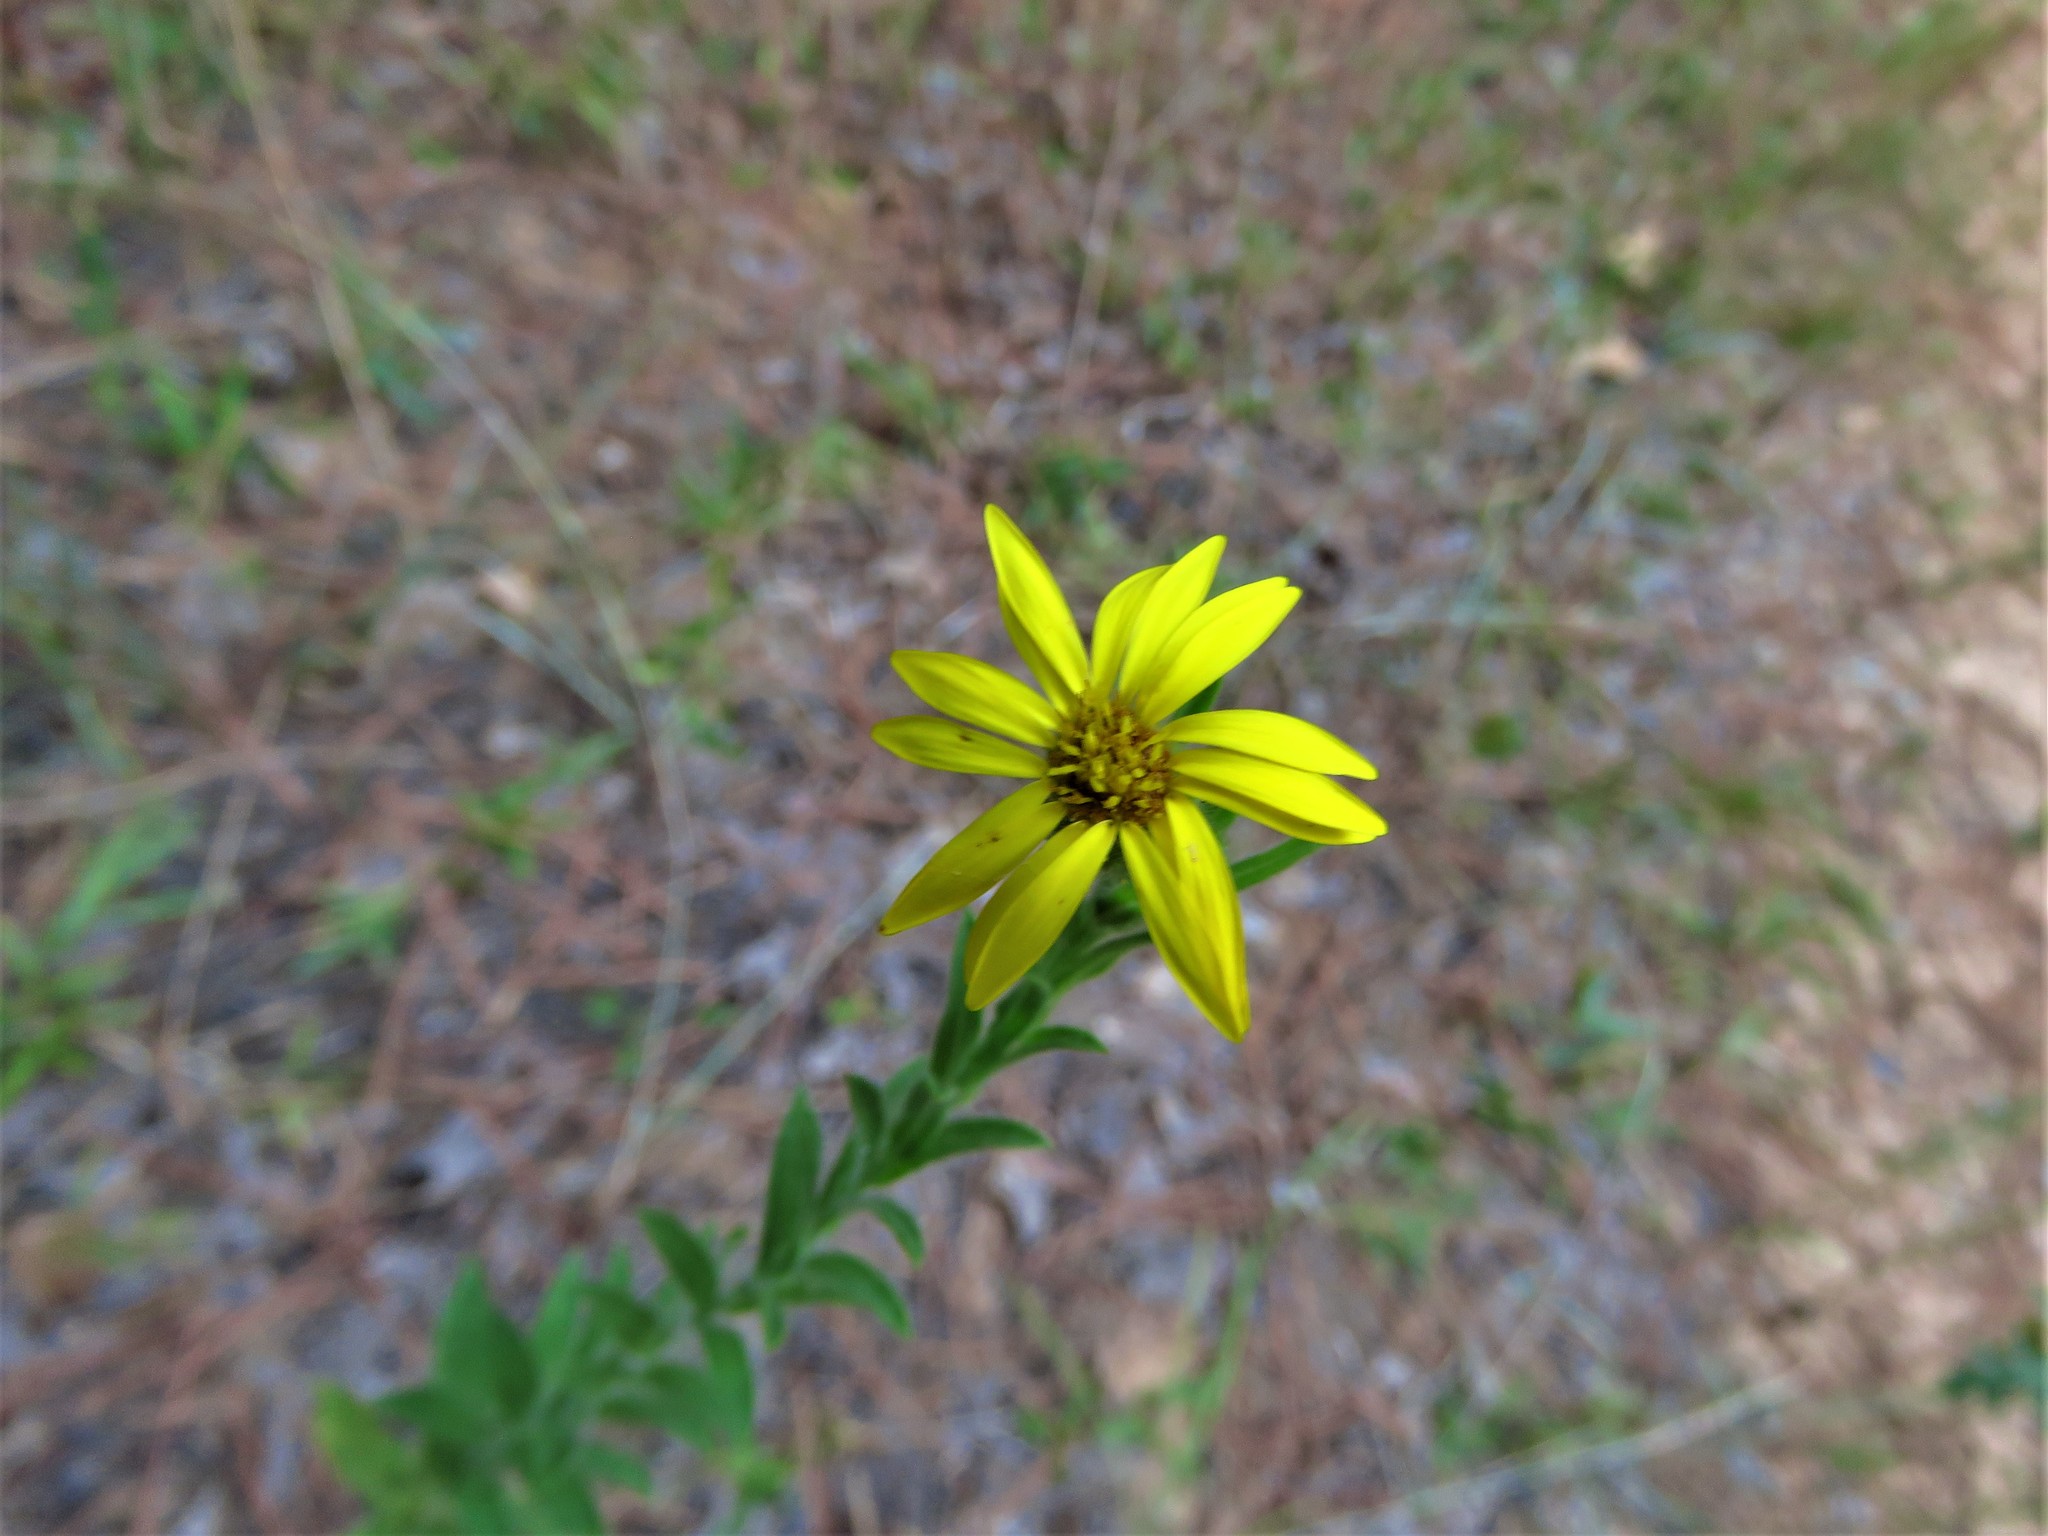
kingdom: Plantae
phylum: Tracheophyta
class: Magnoliopsida
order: Asterales
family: Asteraceae
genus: Bradburia
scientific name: Bradburia pilosa
